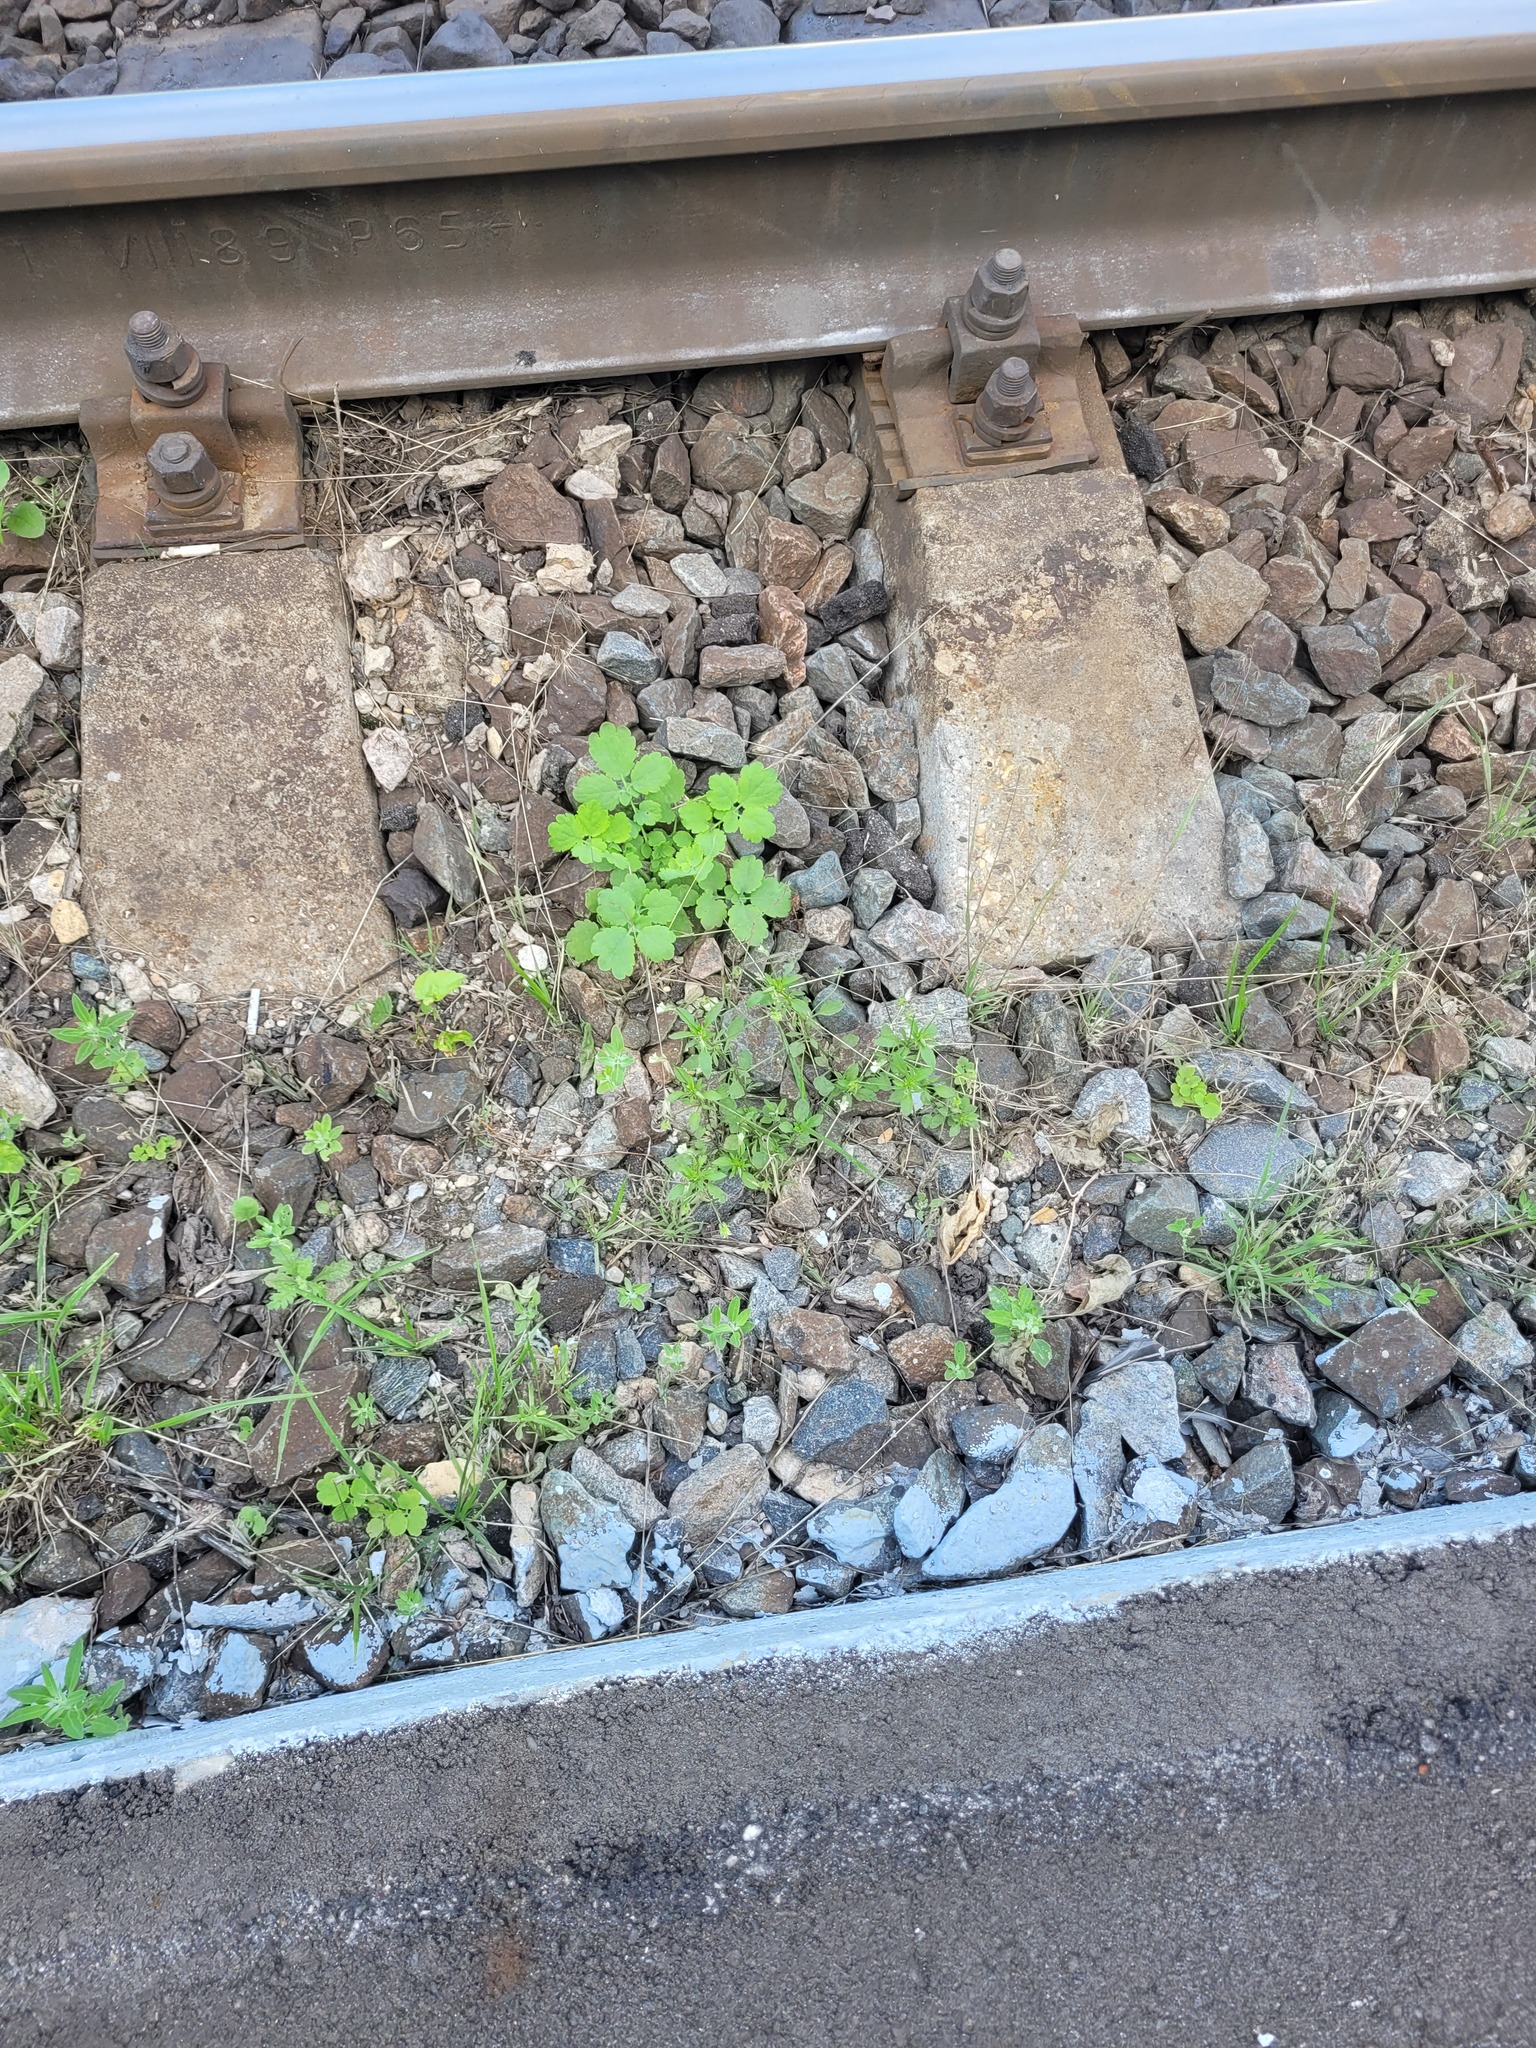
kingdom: Plantae
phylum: Tracheophyta
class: Magnoliopsida
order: Malpighiales
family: Violaceae
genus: Viola
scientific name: Viola arvensis
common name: Field pansy
